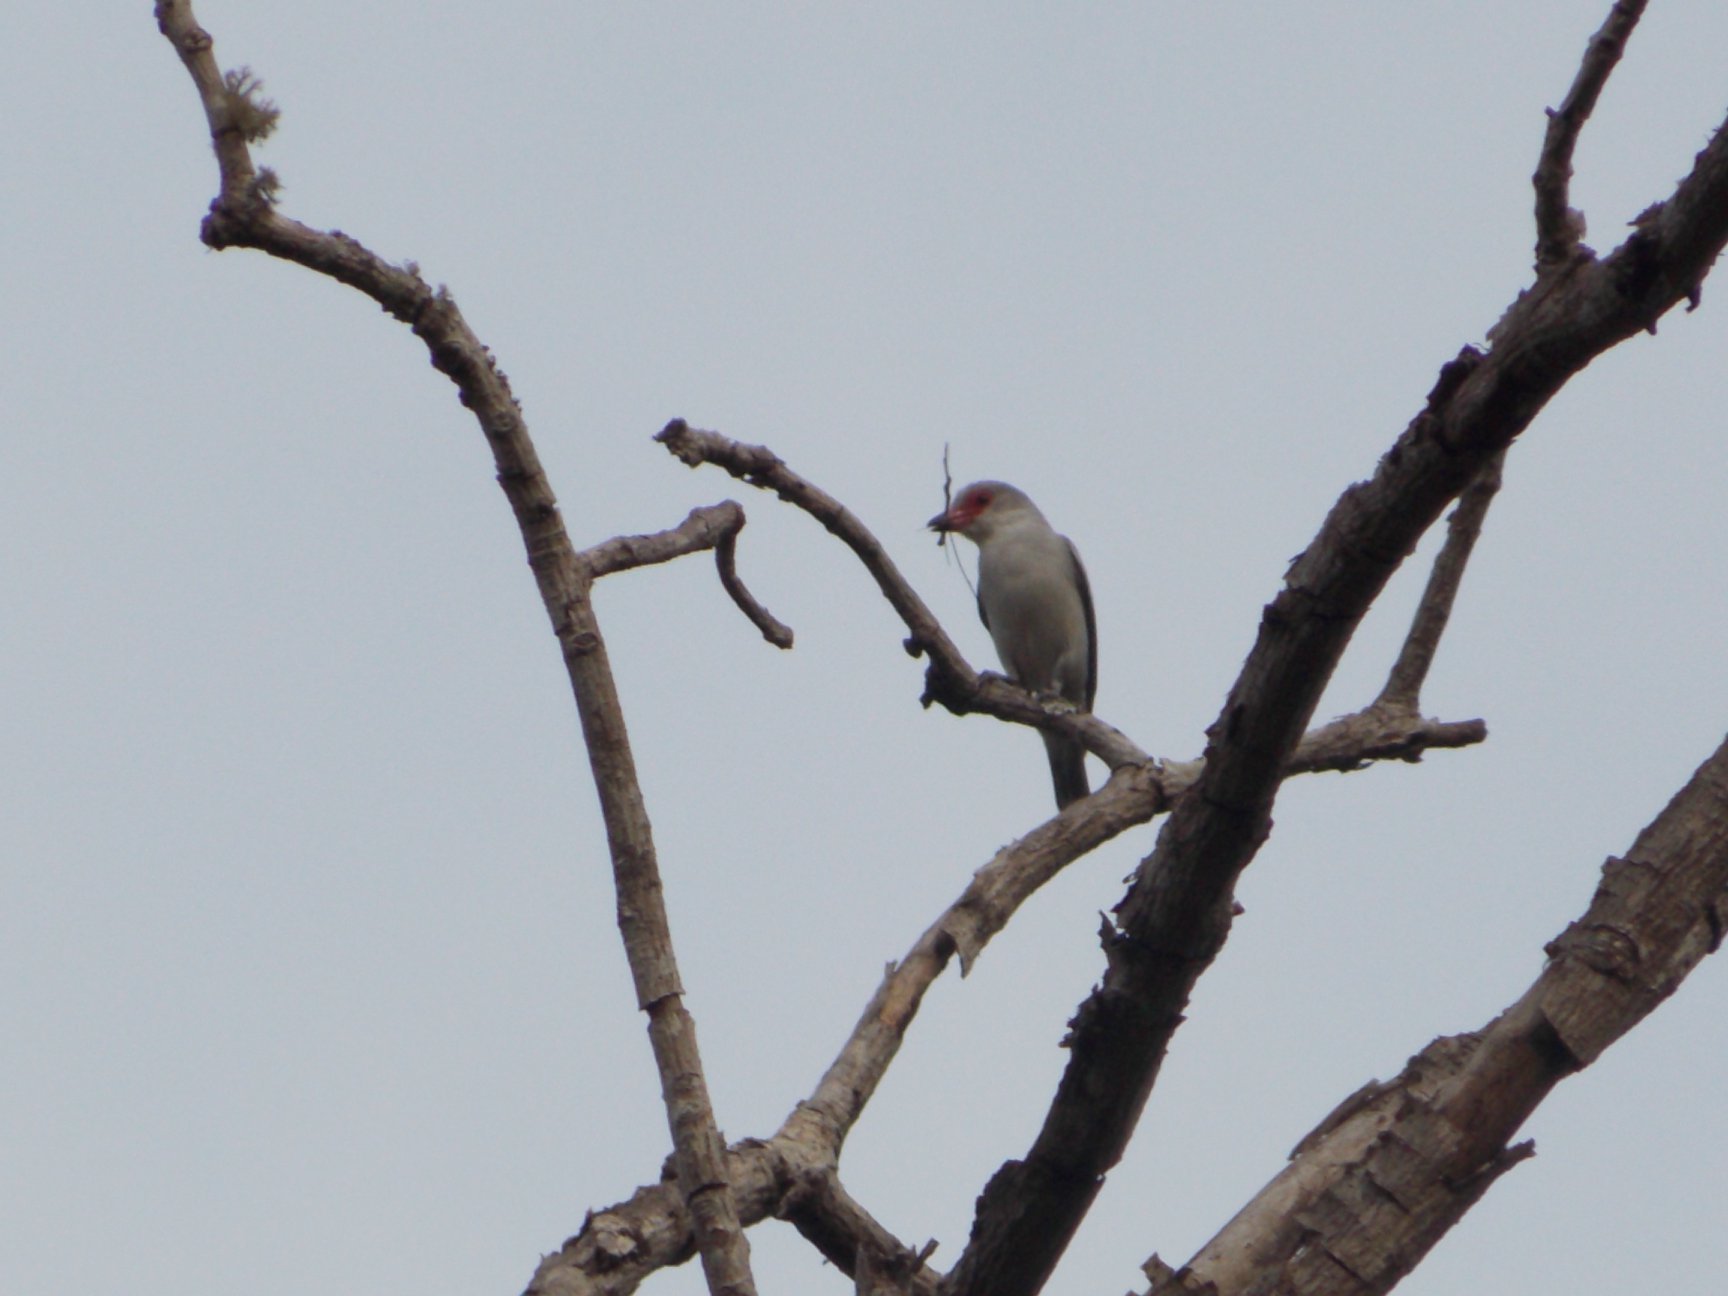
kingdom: Animalia
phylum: Chordata
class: Aves
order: Passeriformes
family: Cotingidae
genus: Tityra
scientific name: Tityra semifasciata
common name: Masked tityra
